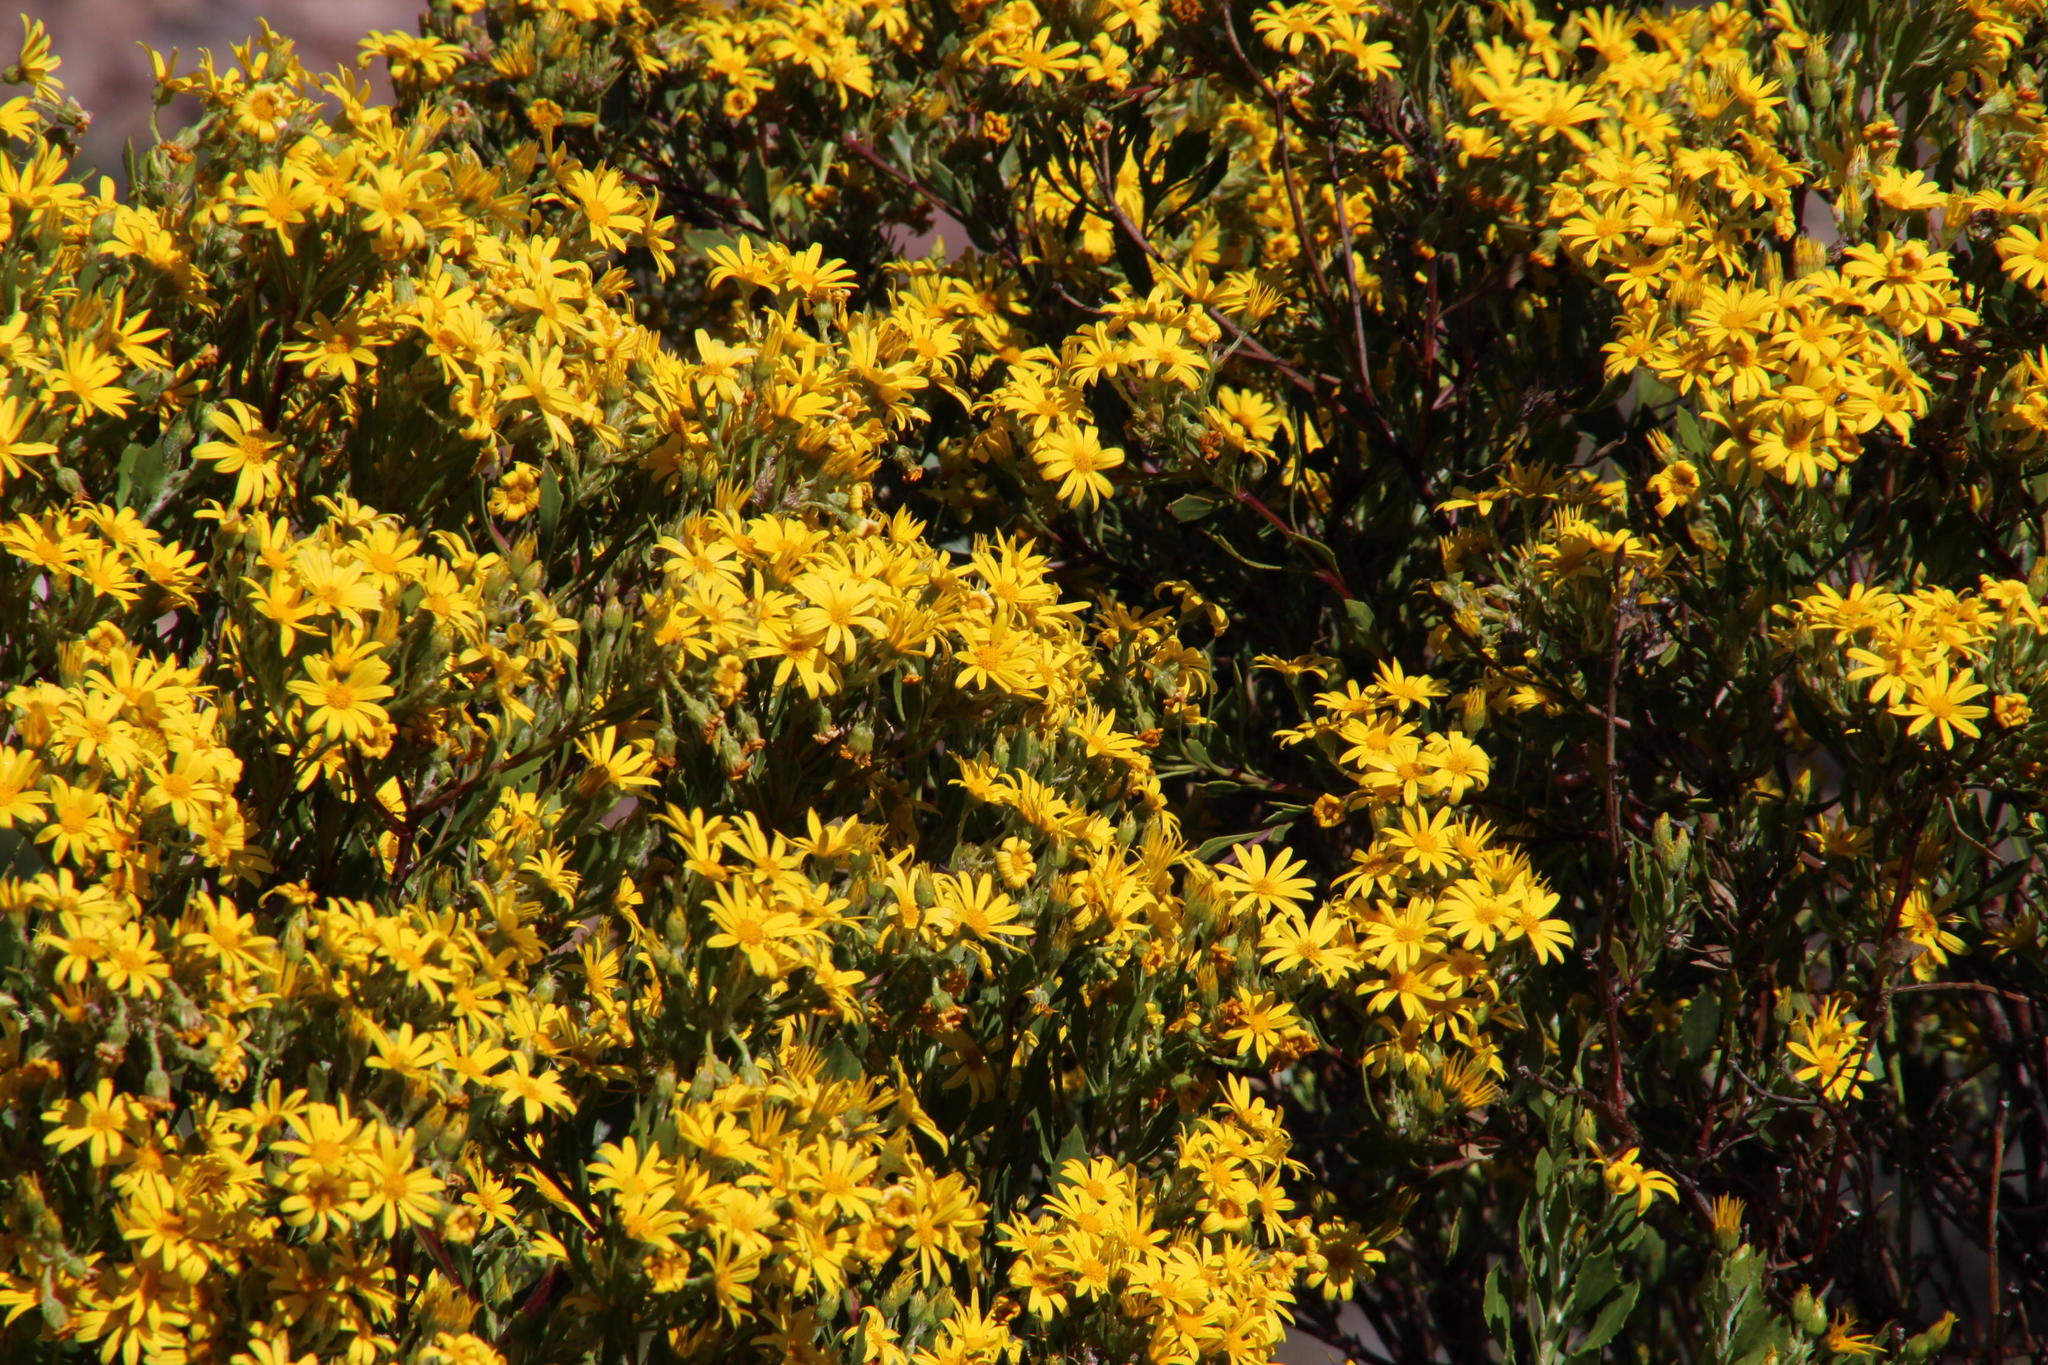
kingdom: Plantae
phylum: Tracheophyta
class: Magnoliopsida
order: Asterales
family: Asteraceae
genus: Osteospermum
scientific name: Osteospermum moniliferum
